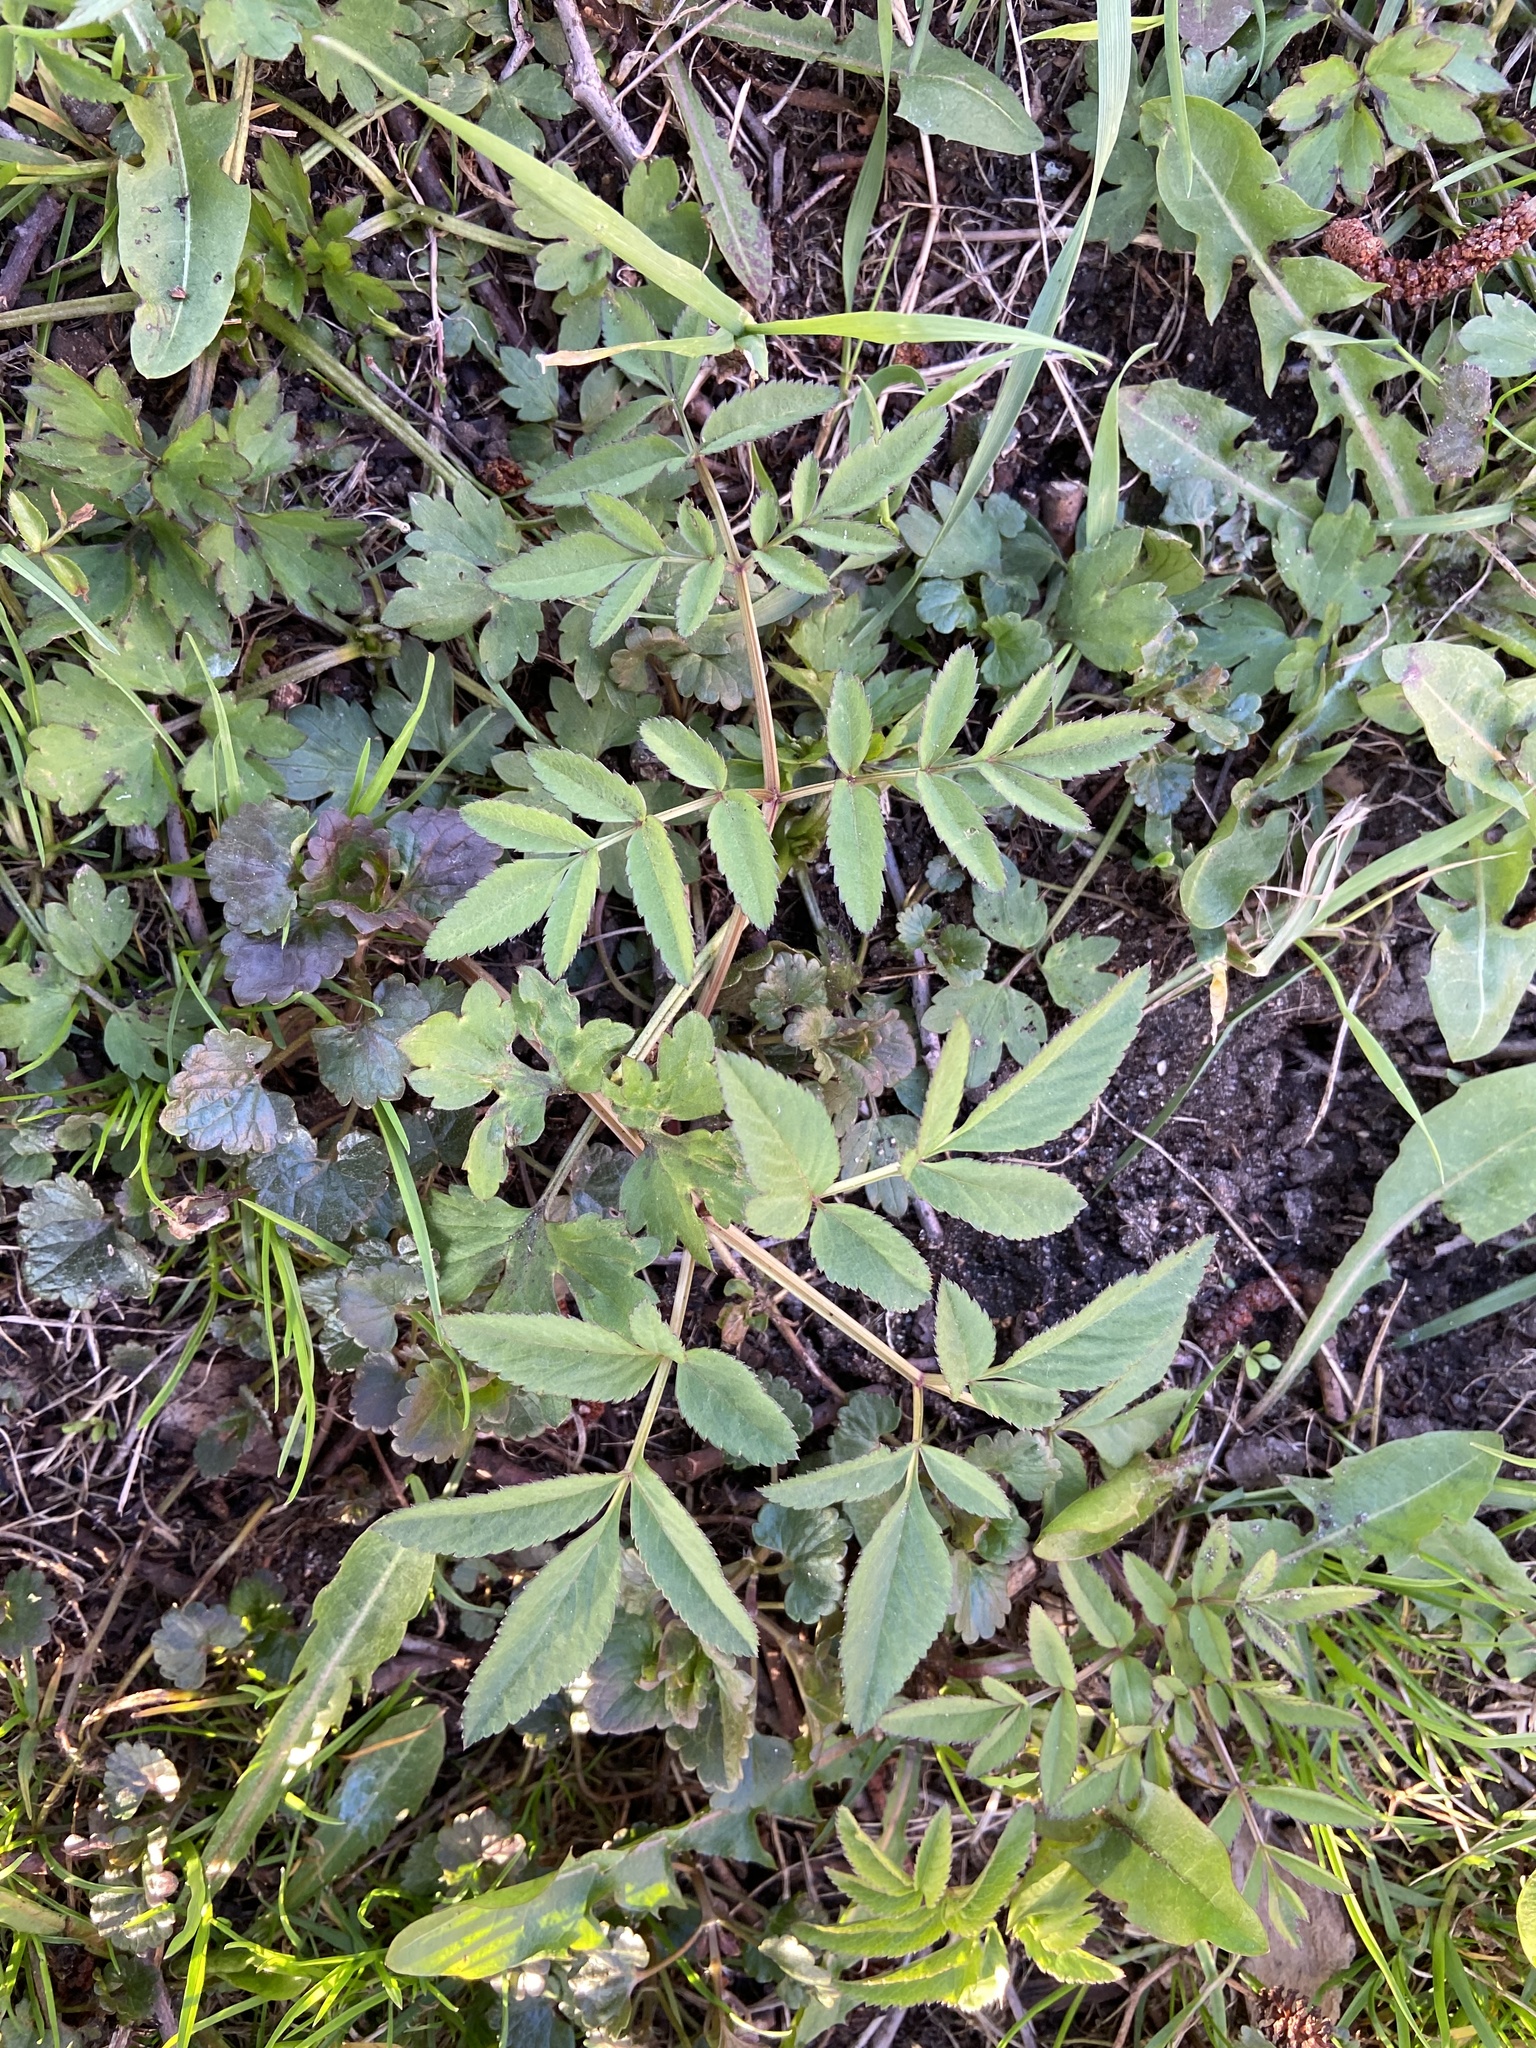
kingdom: Plantae
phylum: Tracheophyta
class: Magnoliopsida
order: Apiales
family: Apiaceae
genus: Angelica
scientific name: Angelica sylvestris
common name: Wild angelica
